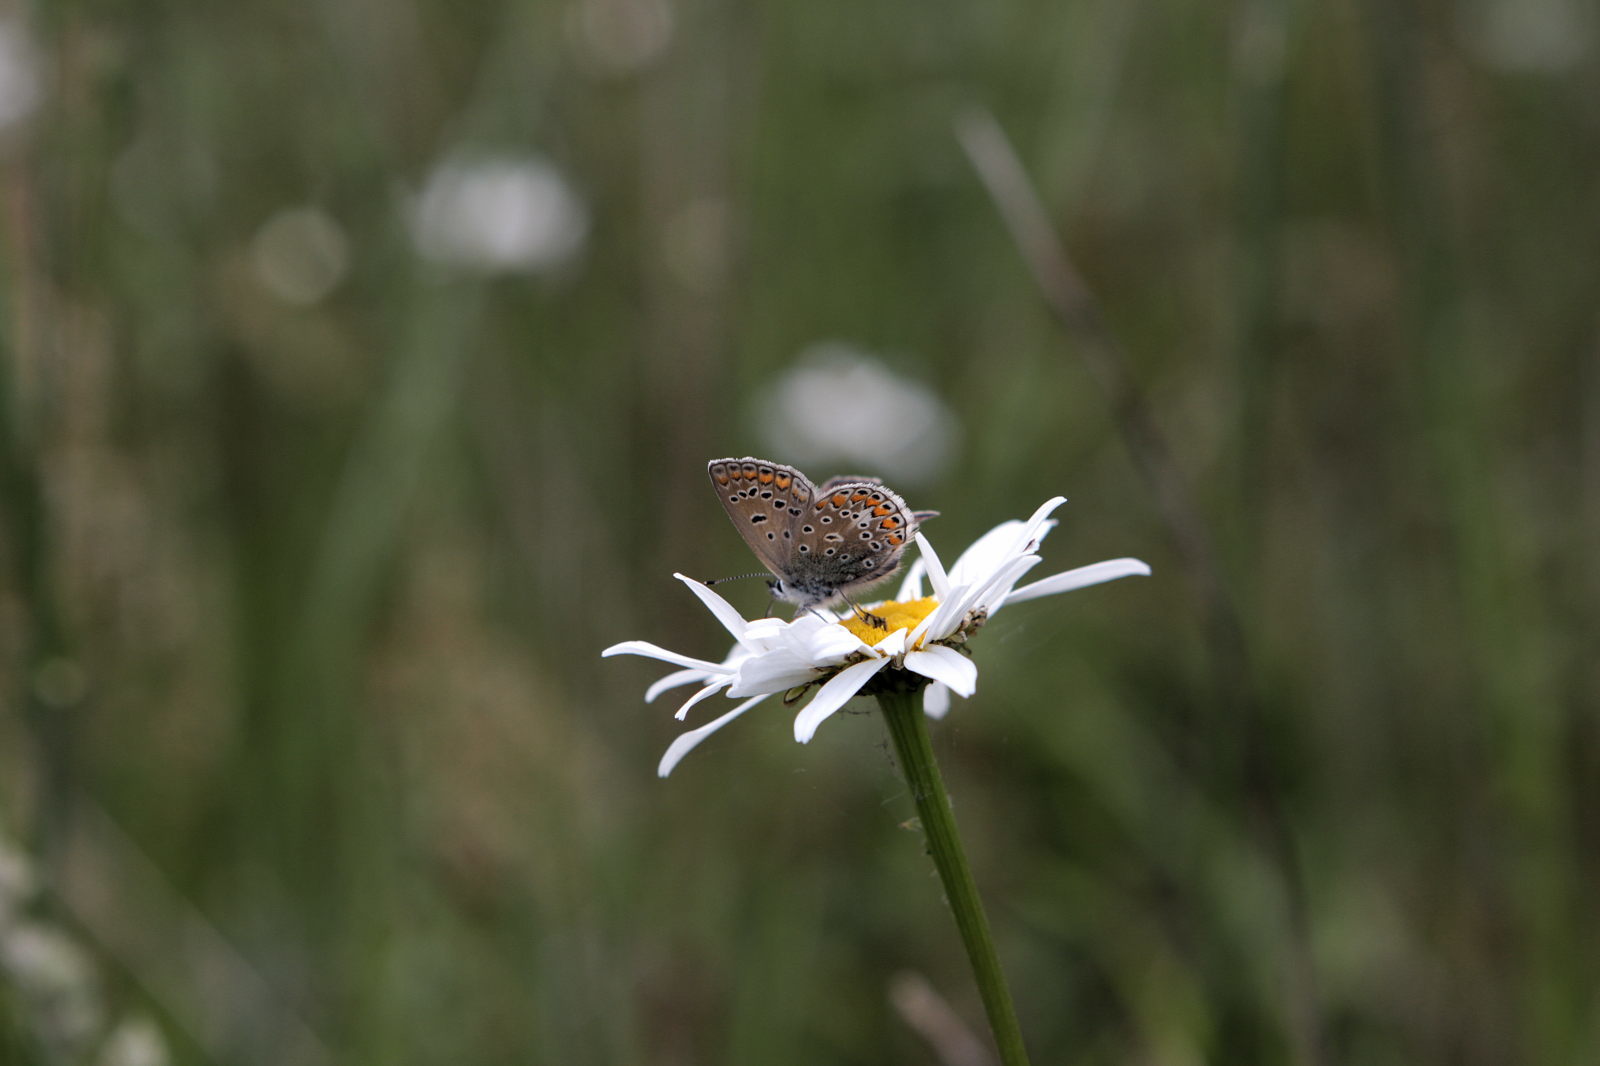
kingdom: Animalia
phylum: Arthropoda
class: Insecta
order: Lepidoptera
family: Lycaenidae
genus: Polyommatus
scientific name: Polyommatus icarus
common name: Common blue
